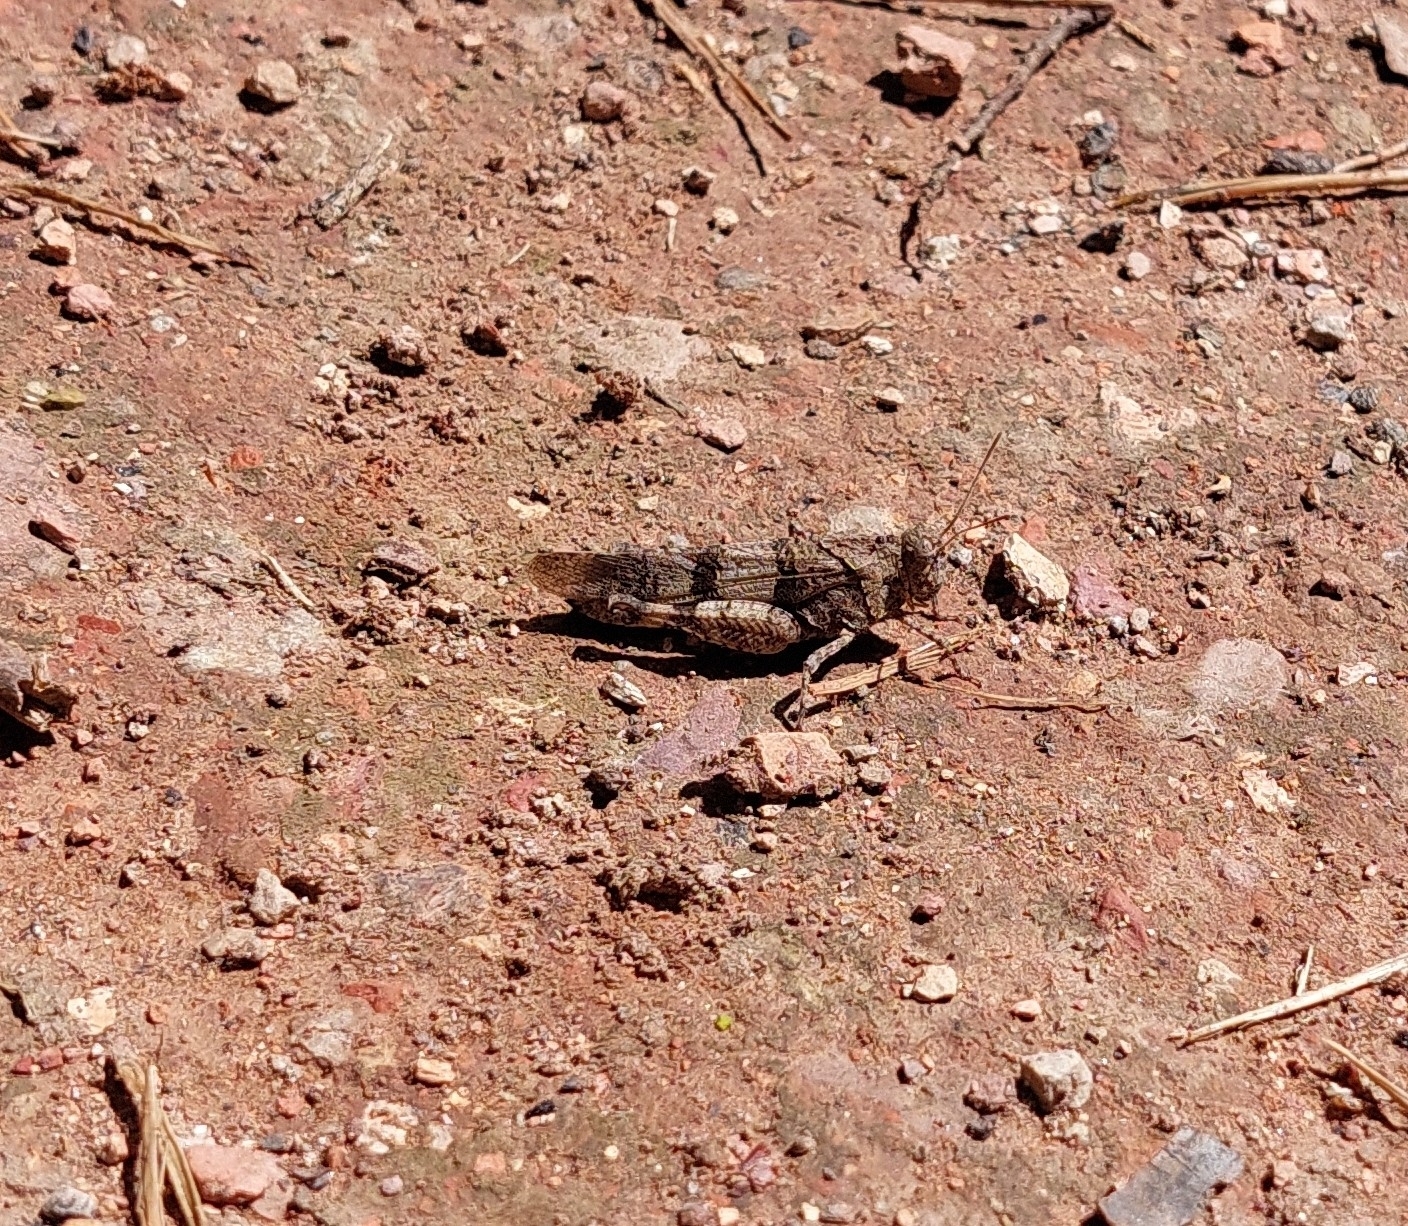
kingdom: Animalia
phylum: Arthropoda
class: Insecta
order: Orthoptera
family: Acrididae
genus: Oedipoda
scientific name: Oedipoda caerulescens
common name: Blue-winged grasshopper
